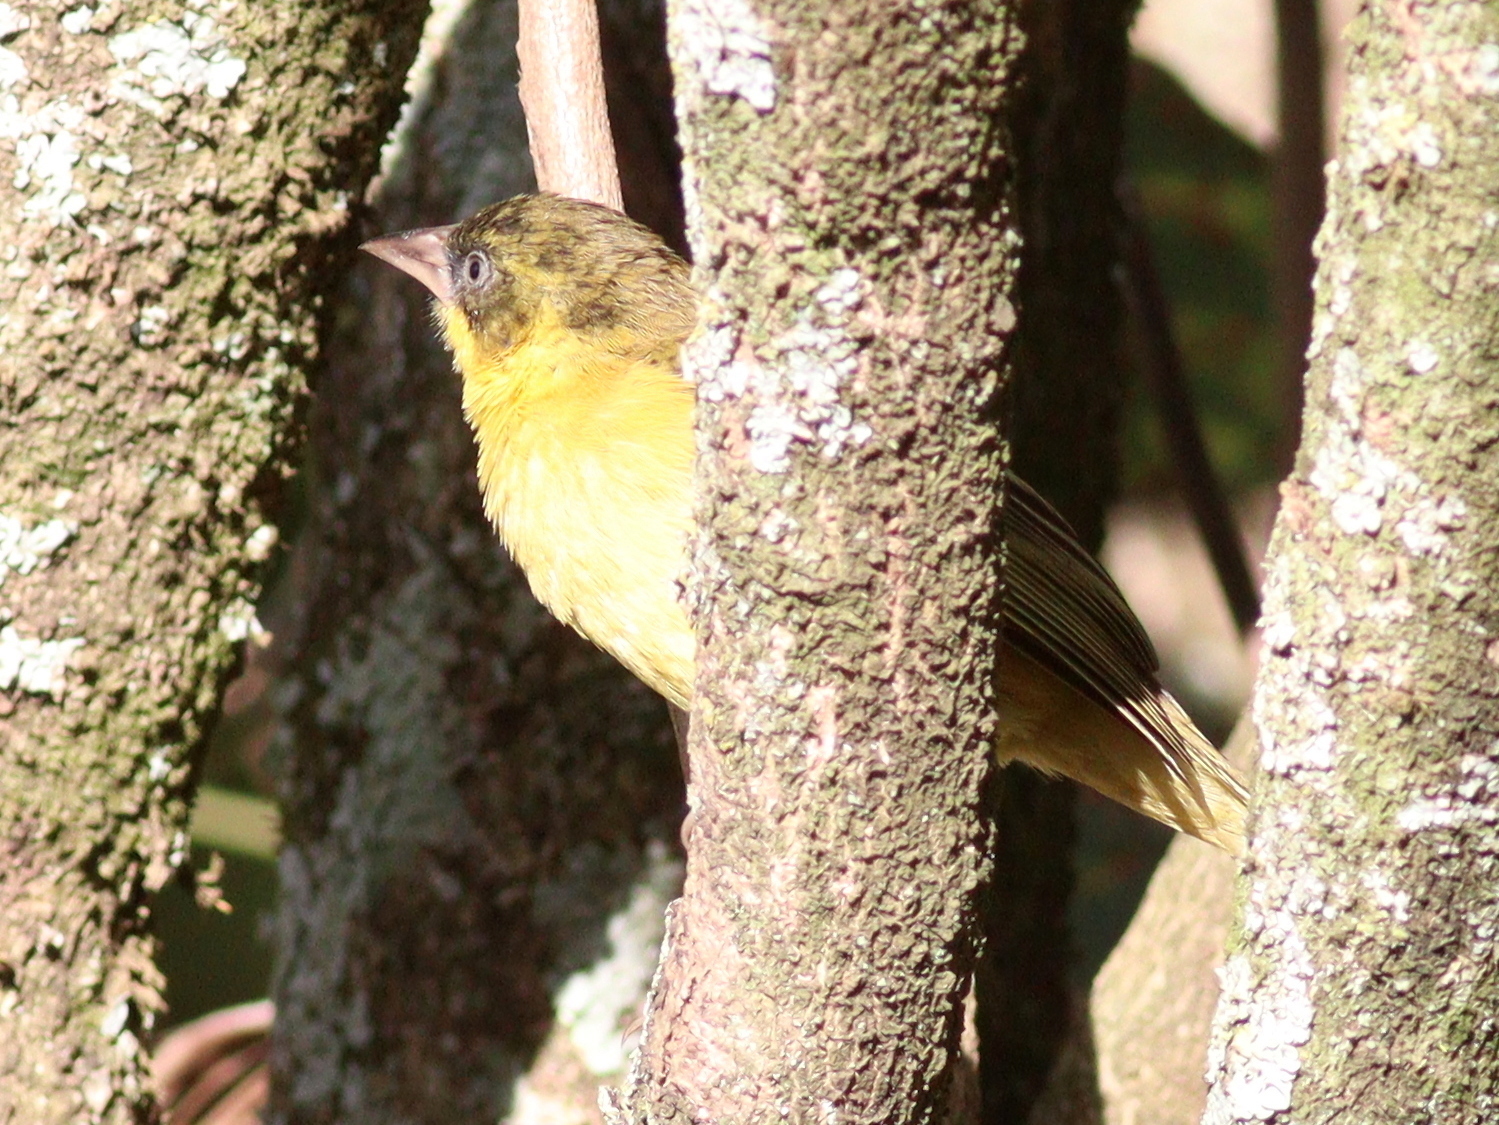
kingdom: Animalia
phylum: Chordata
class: Aves
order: Passeriformes
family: Ploceidae
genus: Ploceus
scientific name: Ploceus baglafecht
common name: Baglafecht weaver
